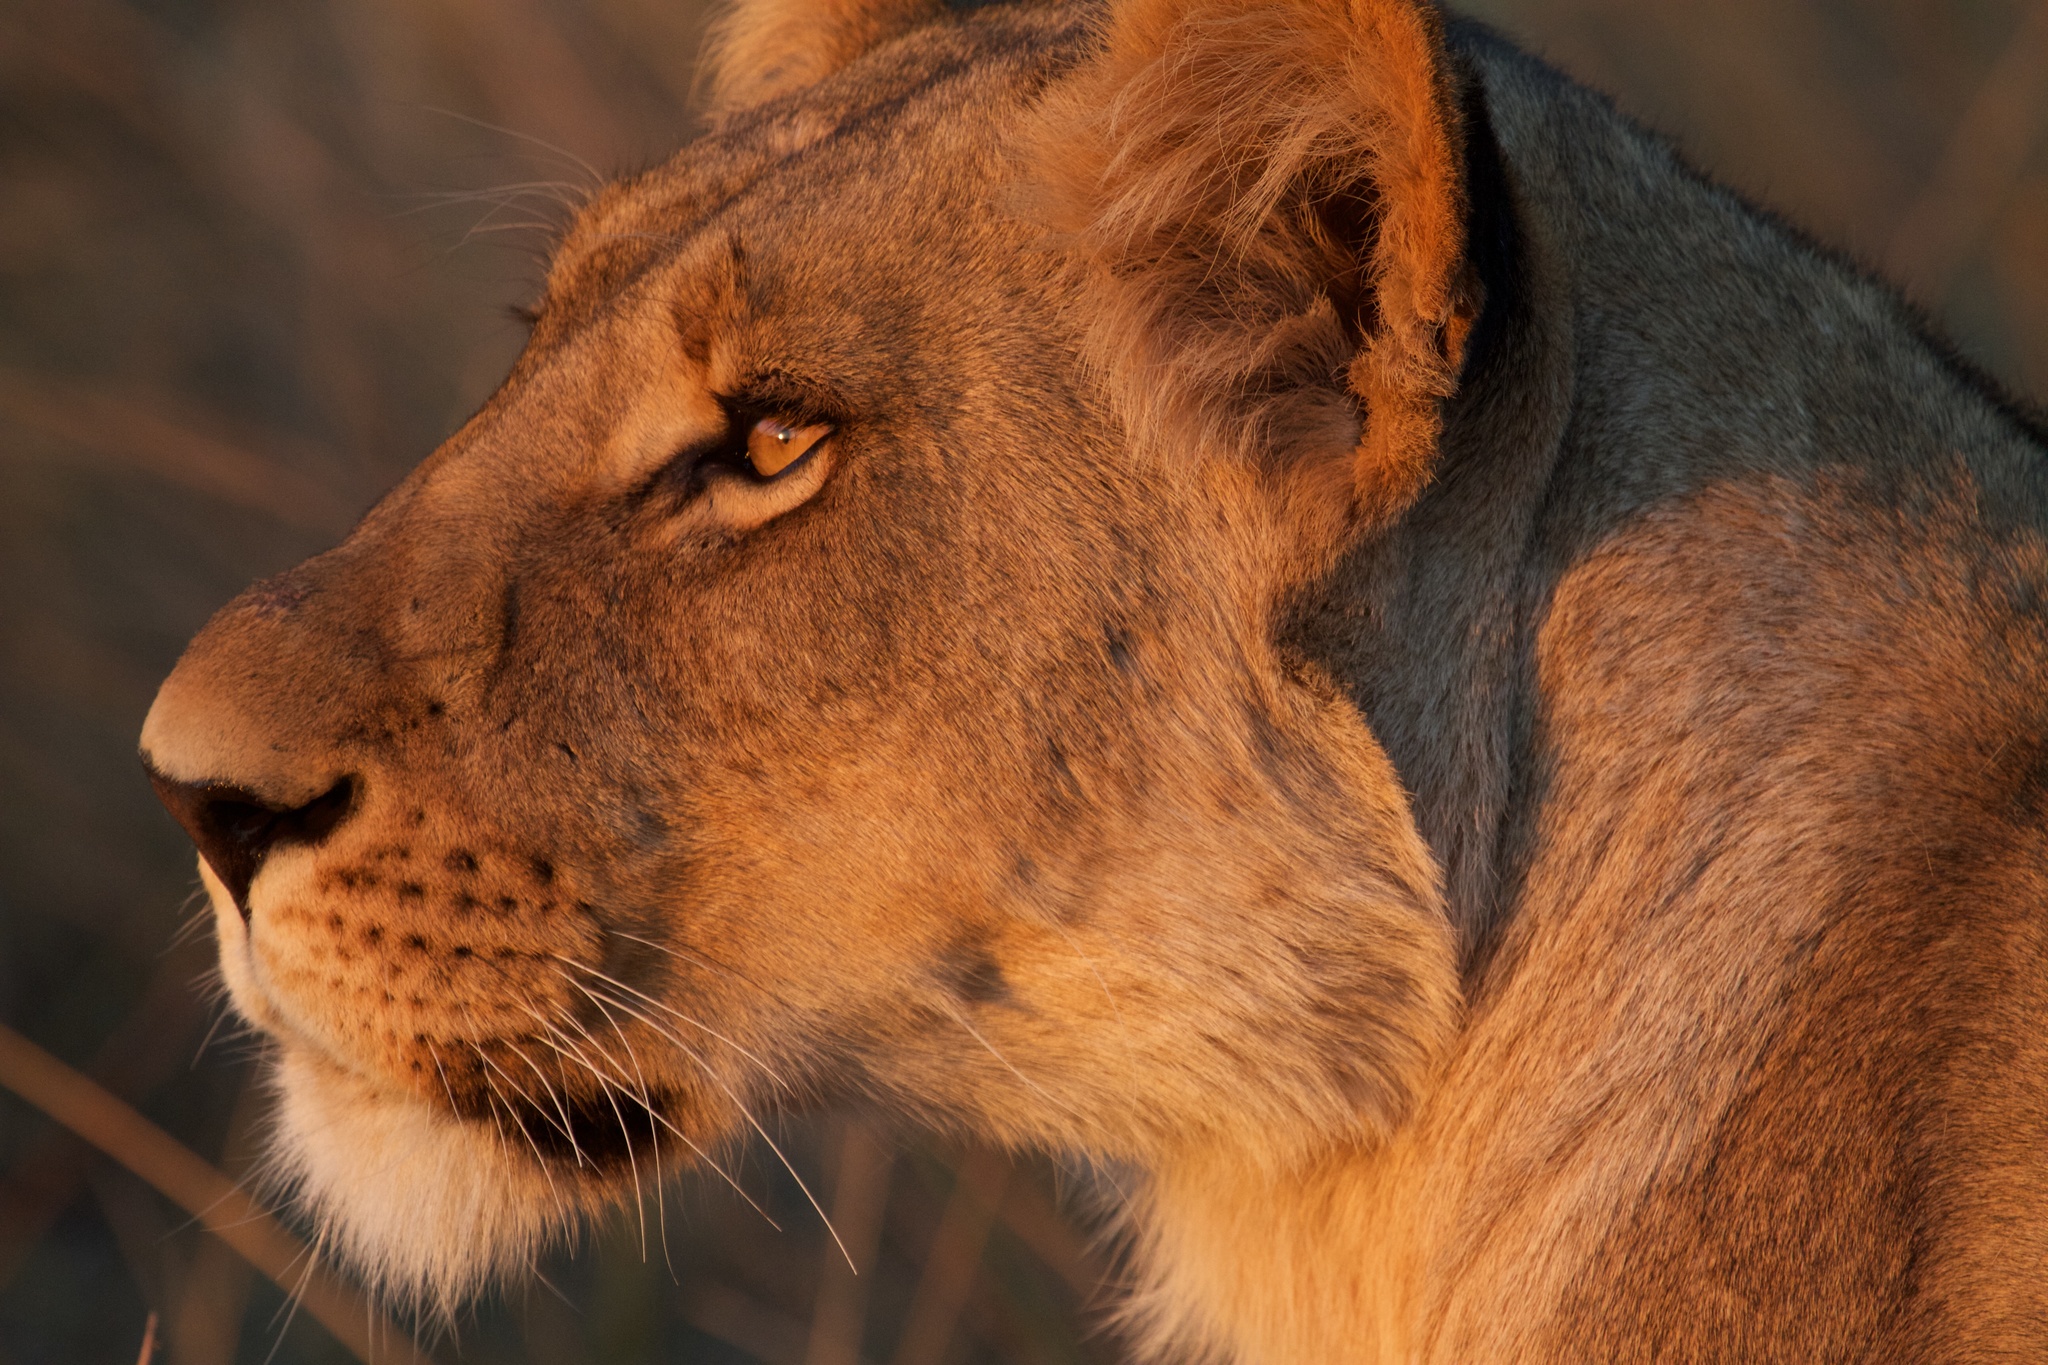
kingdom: Animalia
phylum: Chordata
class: Mammalia
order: Carnivora
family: Felidae
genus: Panthera
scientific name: Panthera leo
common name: Lion
